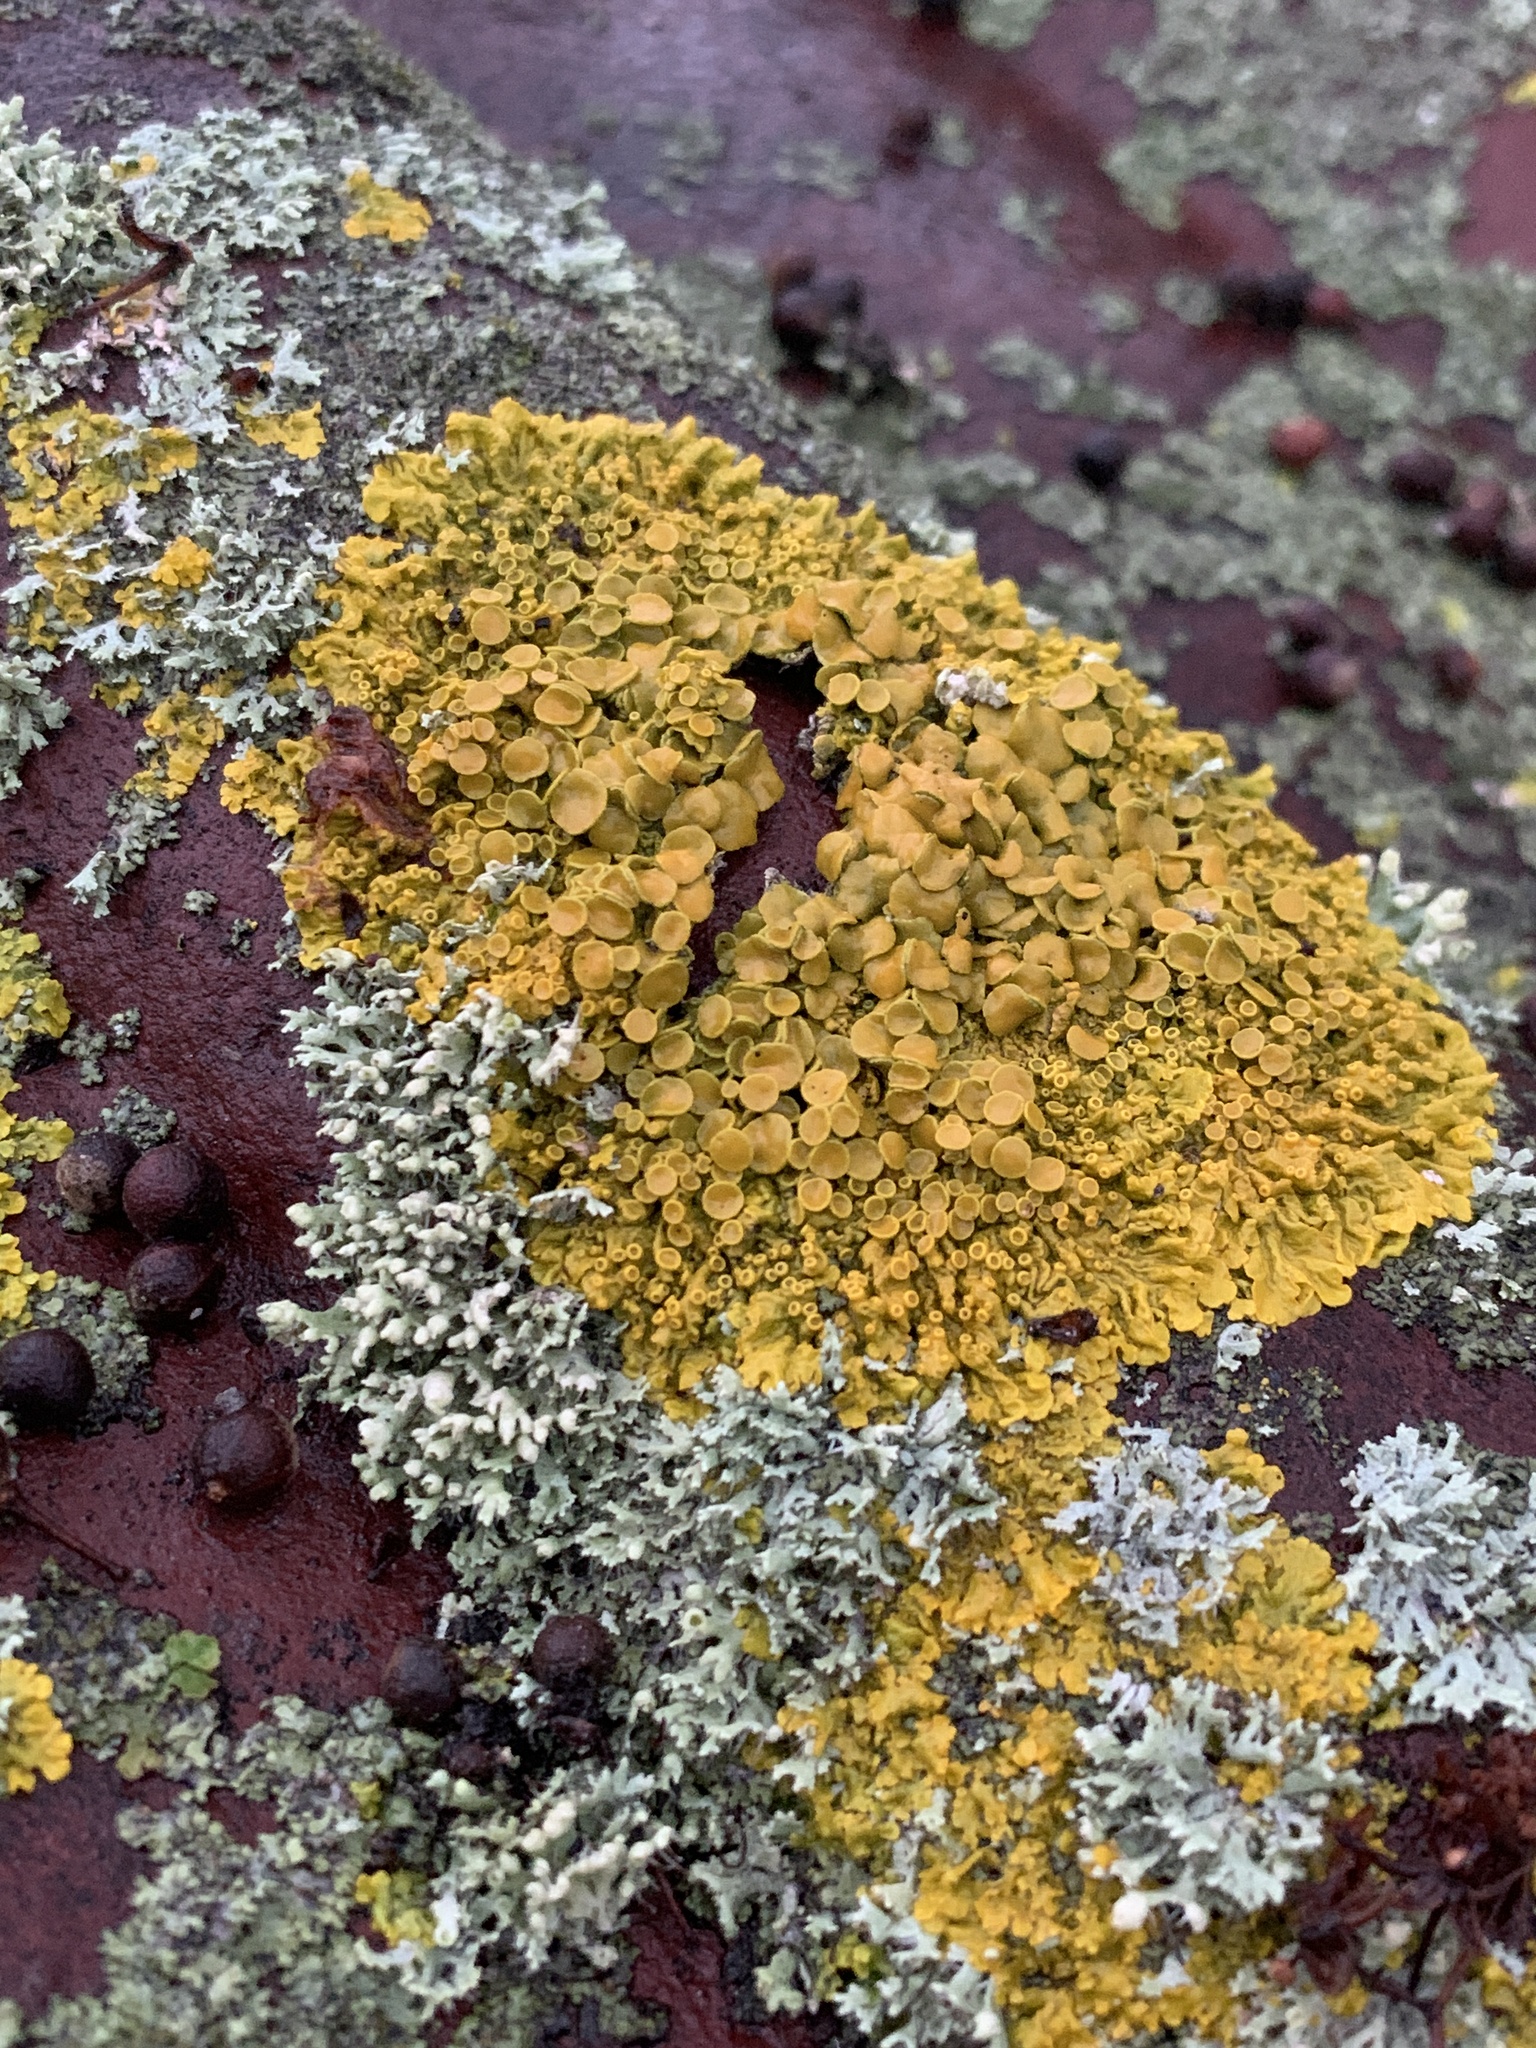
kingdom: Fungi
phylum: Ascomycota
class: Lecanoromycetes
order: Teloschistales
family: Teloschistaceae
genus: Xanthoria
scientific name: Xanthoria parietina
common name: Common orange lichen
